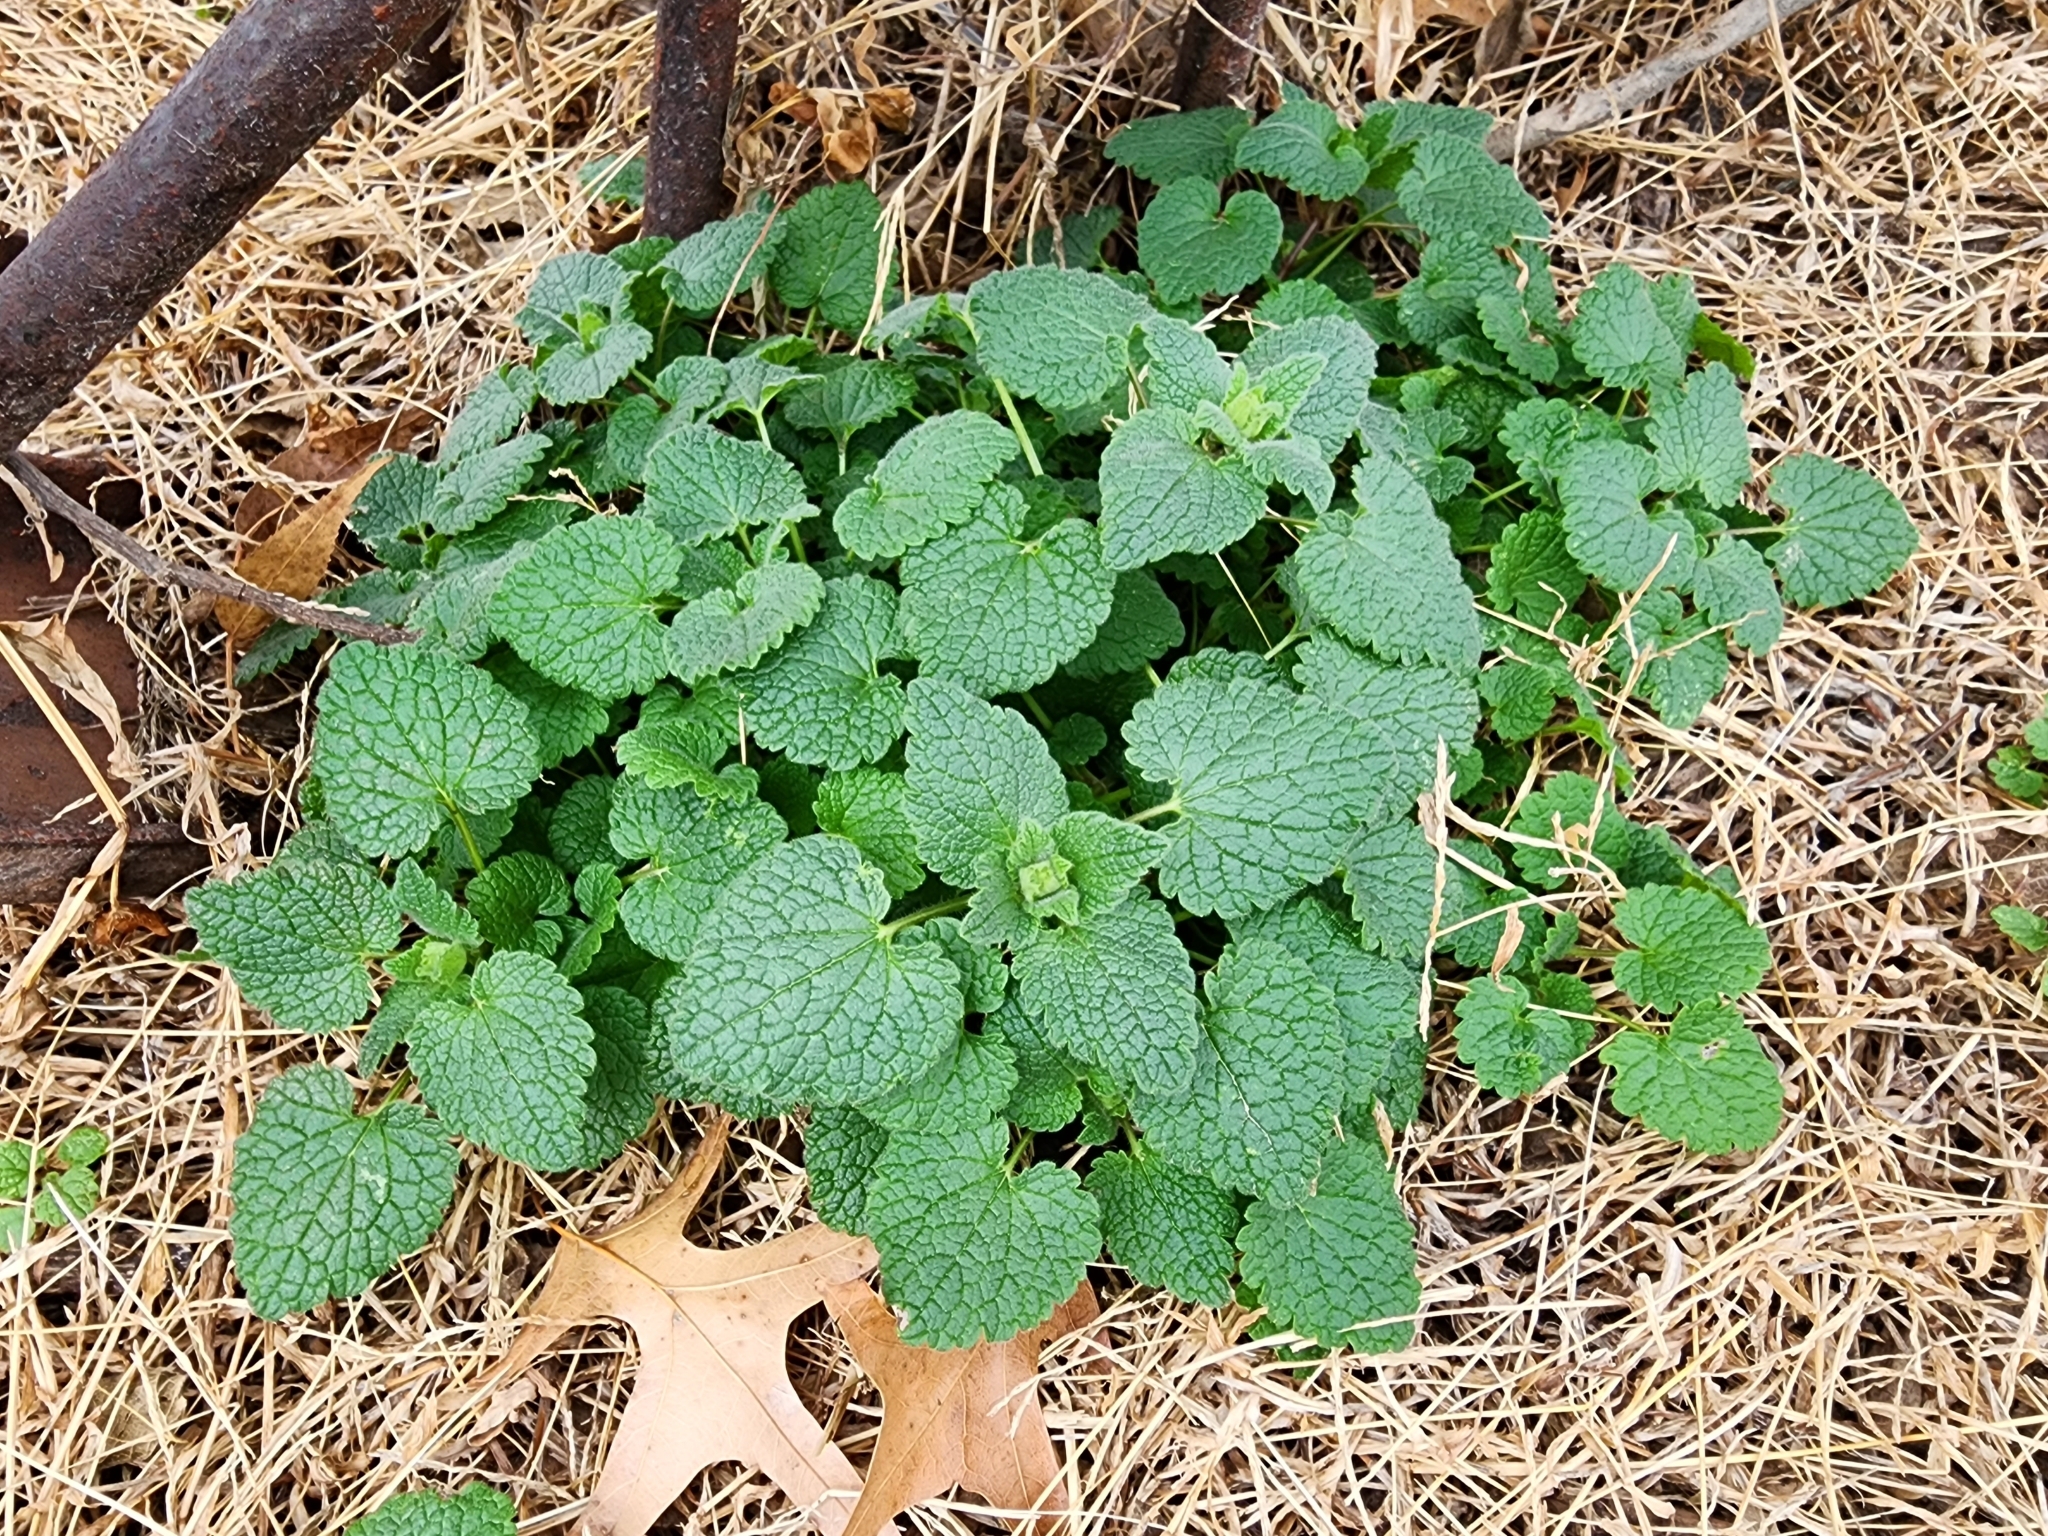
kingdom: Plantae
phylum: Tracheophyta
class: Magnoliopsida
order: Lamiales
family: Lamiaceae
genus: Lamium
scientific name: Lamium purpureum
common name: Red dead-nettle
